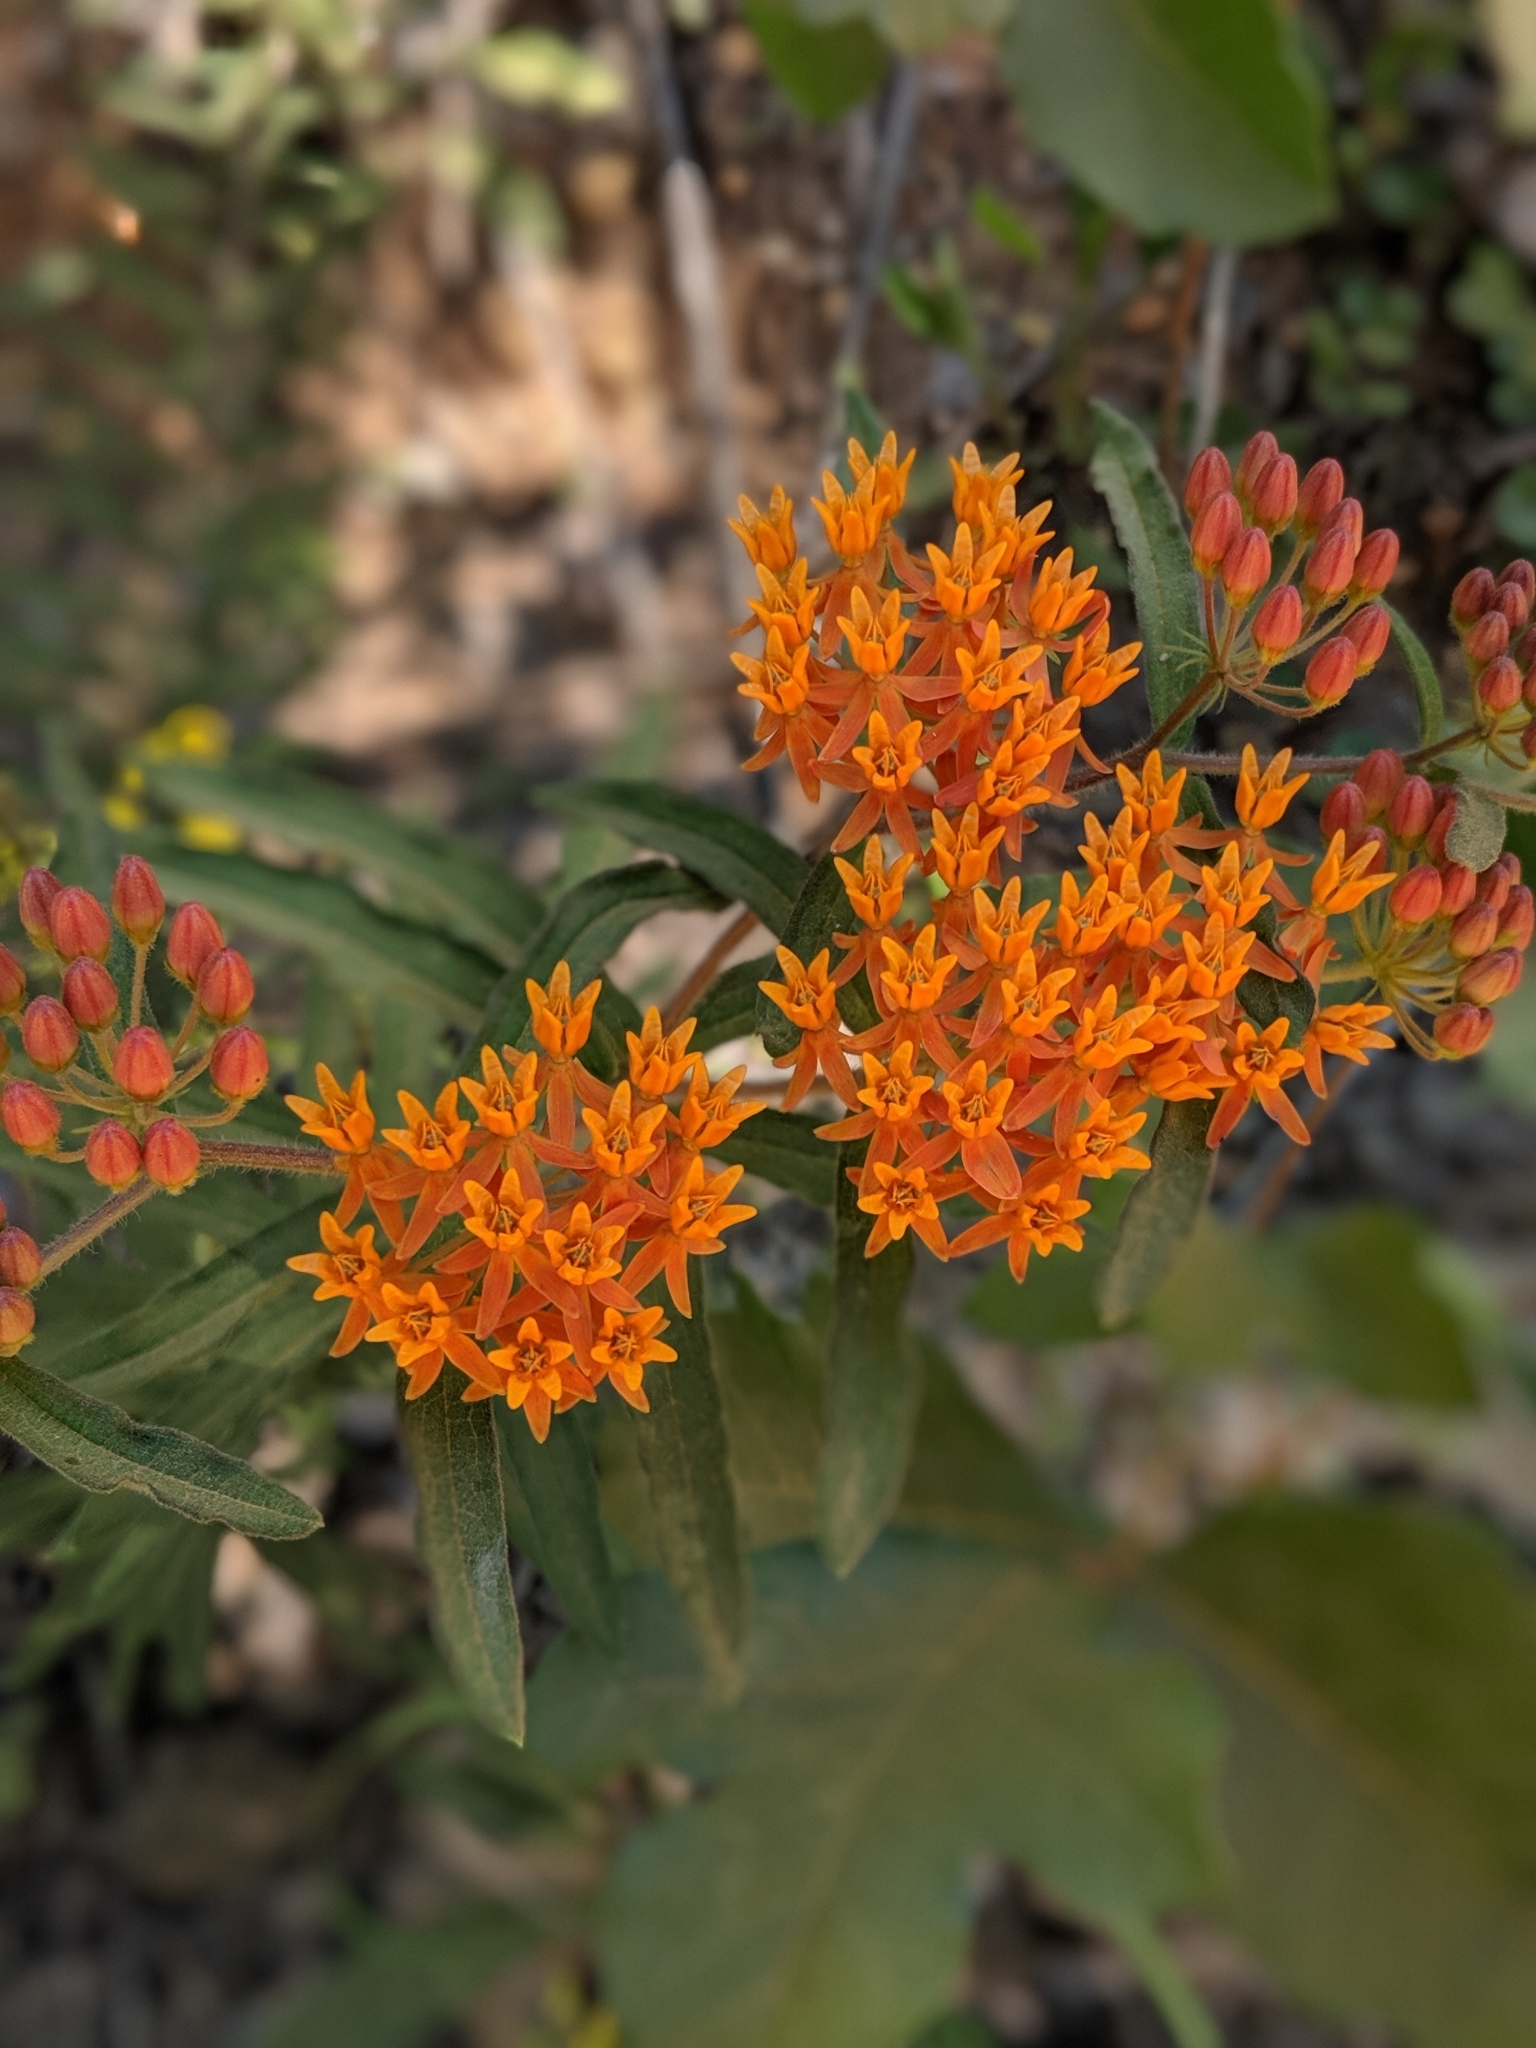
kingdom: Plantae
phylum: Tracheophyta
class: Magnoliopsida
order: Gentianales
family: Apocynaceae
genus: Asclepias
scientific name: Asclepias tuberosa
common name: Butterfly milkweed
